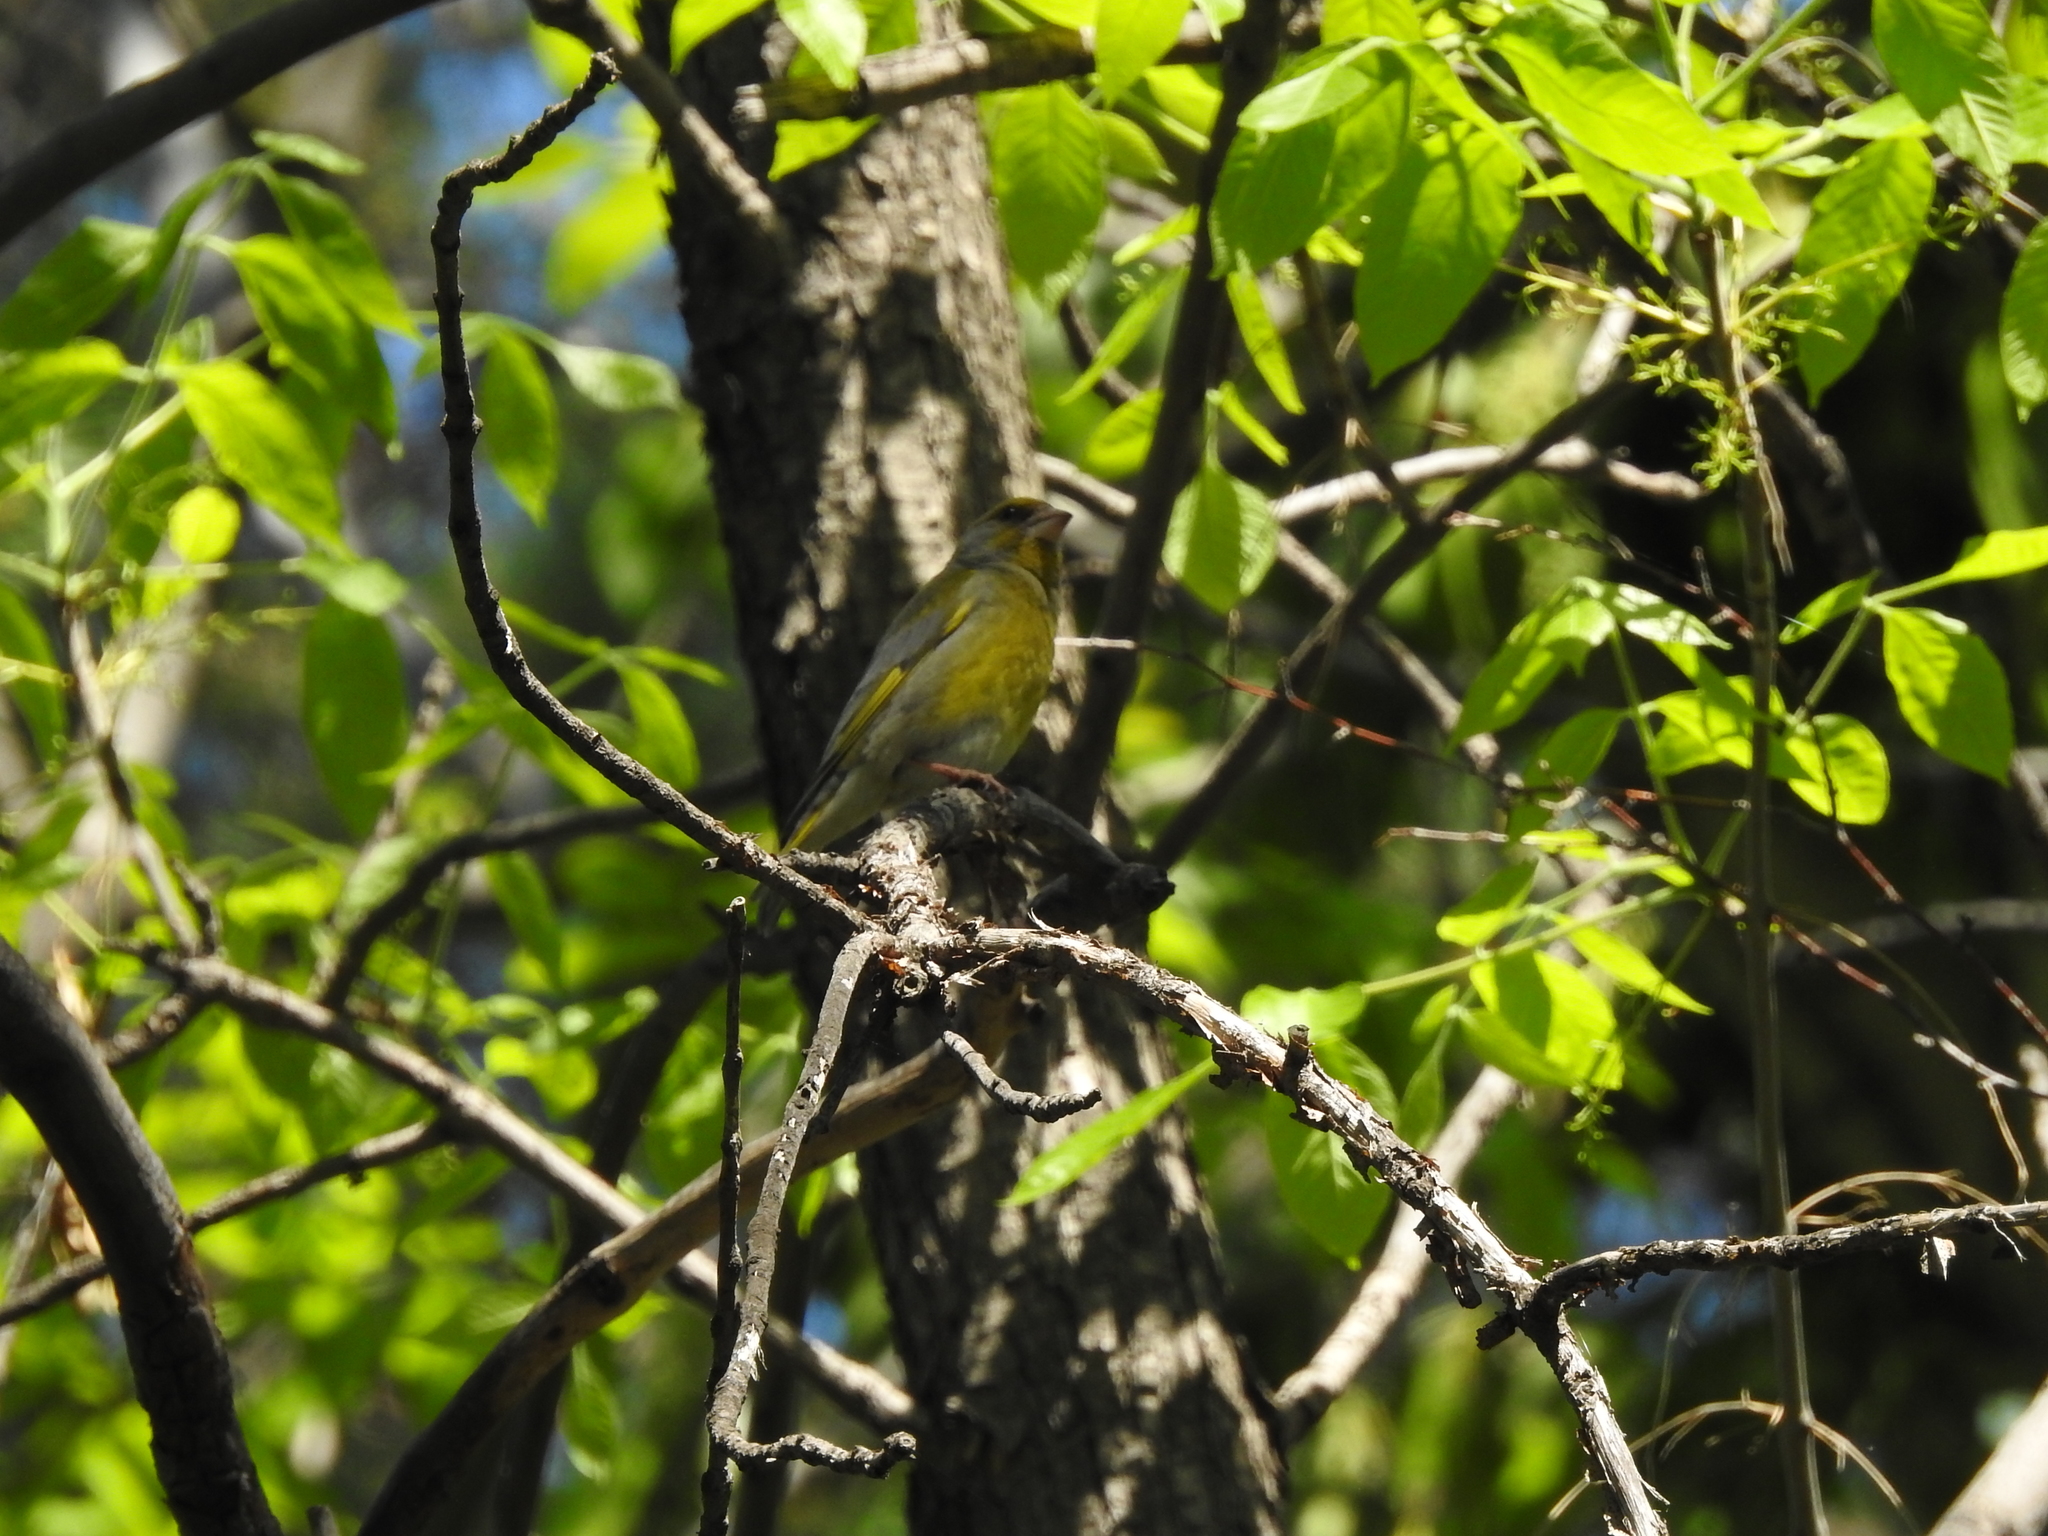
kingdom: Plantae
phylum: Tracheophyta
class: Liliopsida
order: Poales
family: Poaceae
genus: Chloris
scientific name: Chloris chloris
